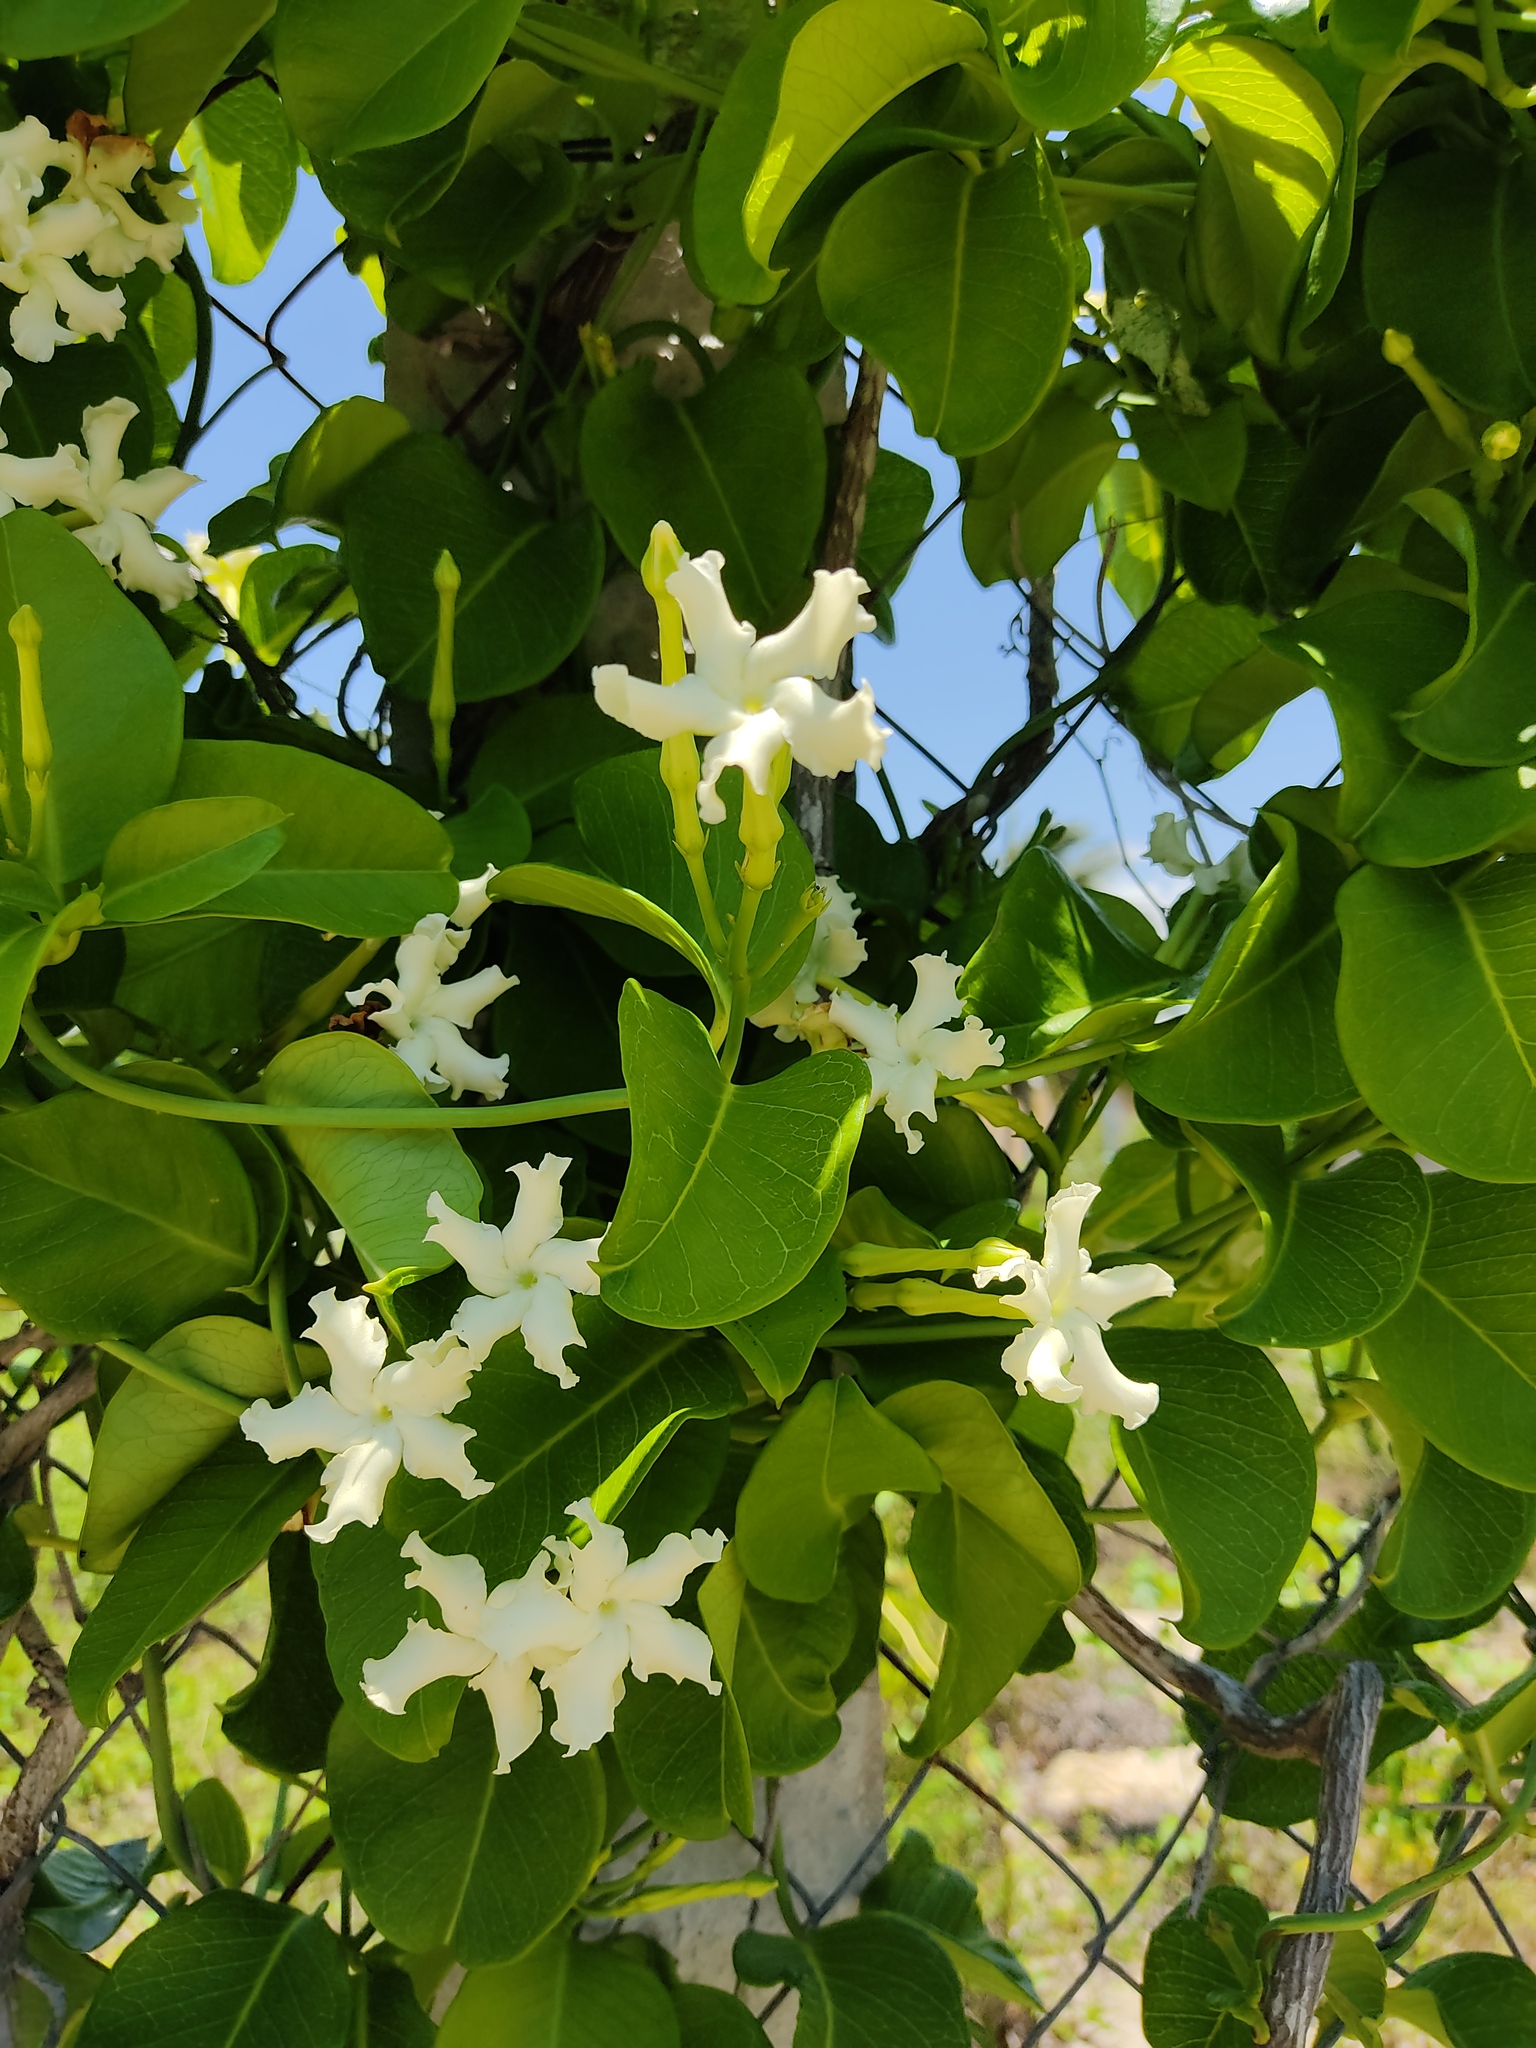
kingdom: Plantae
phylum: Tracheophyta
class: Magnoliopsida
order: Gentianales
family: Apocynaceae
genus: Echites
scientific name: Echites umbellatus
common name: Devil's potato
